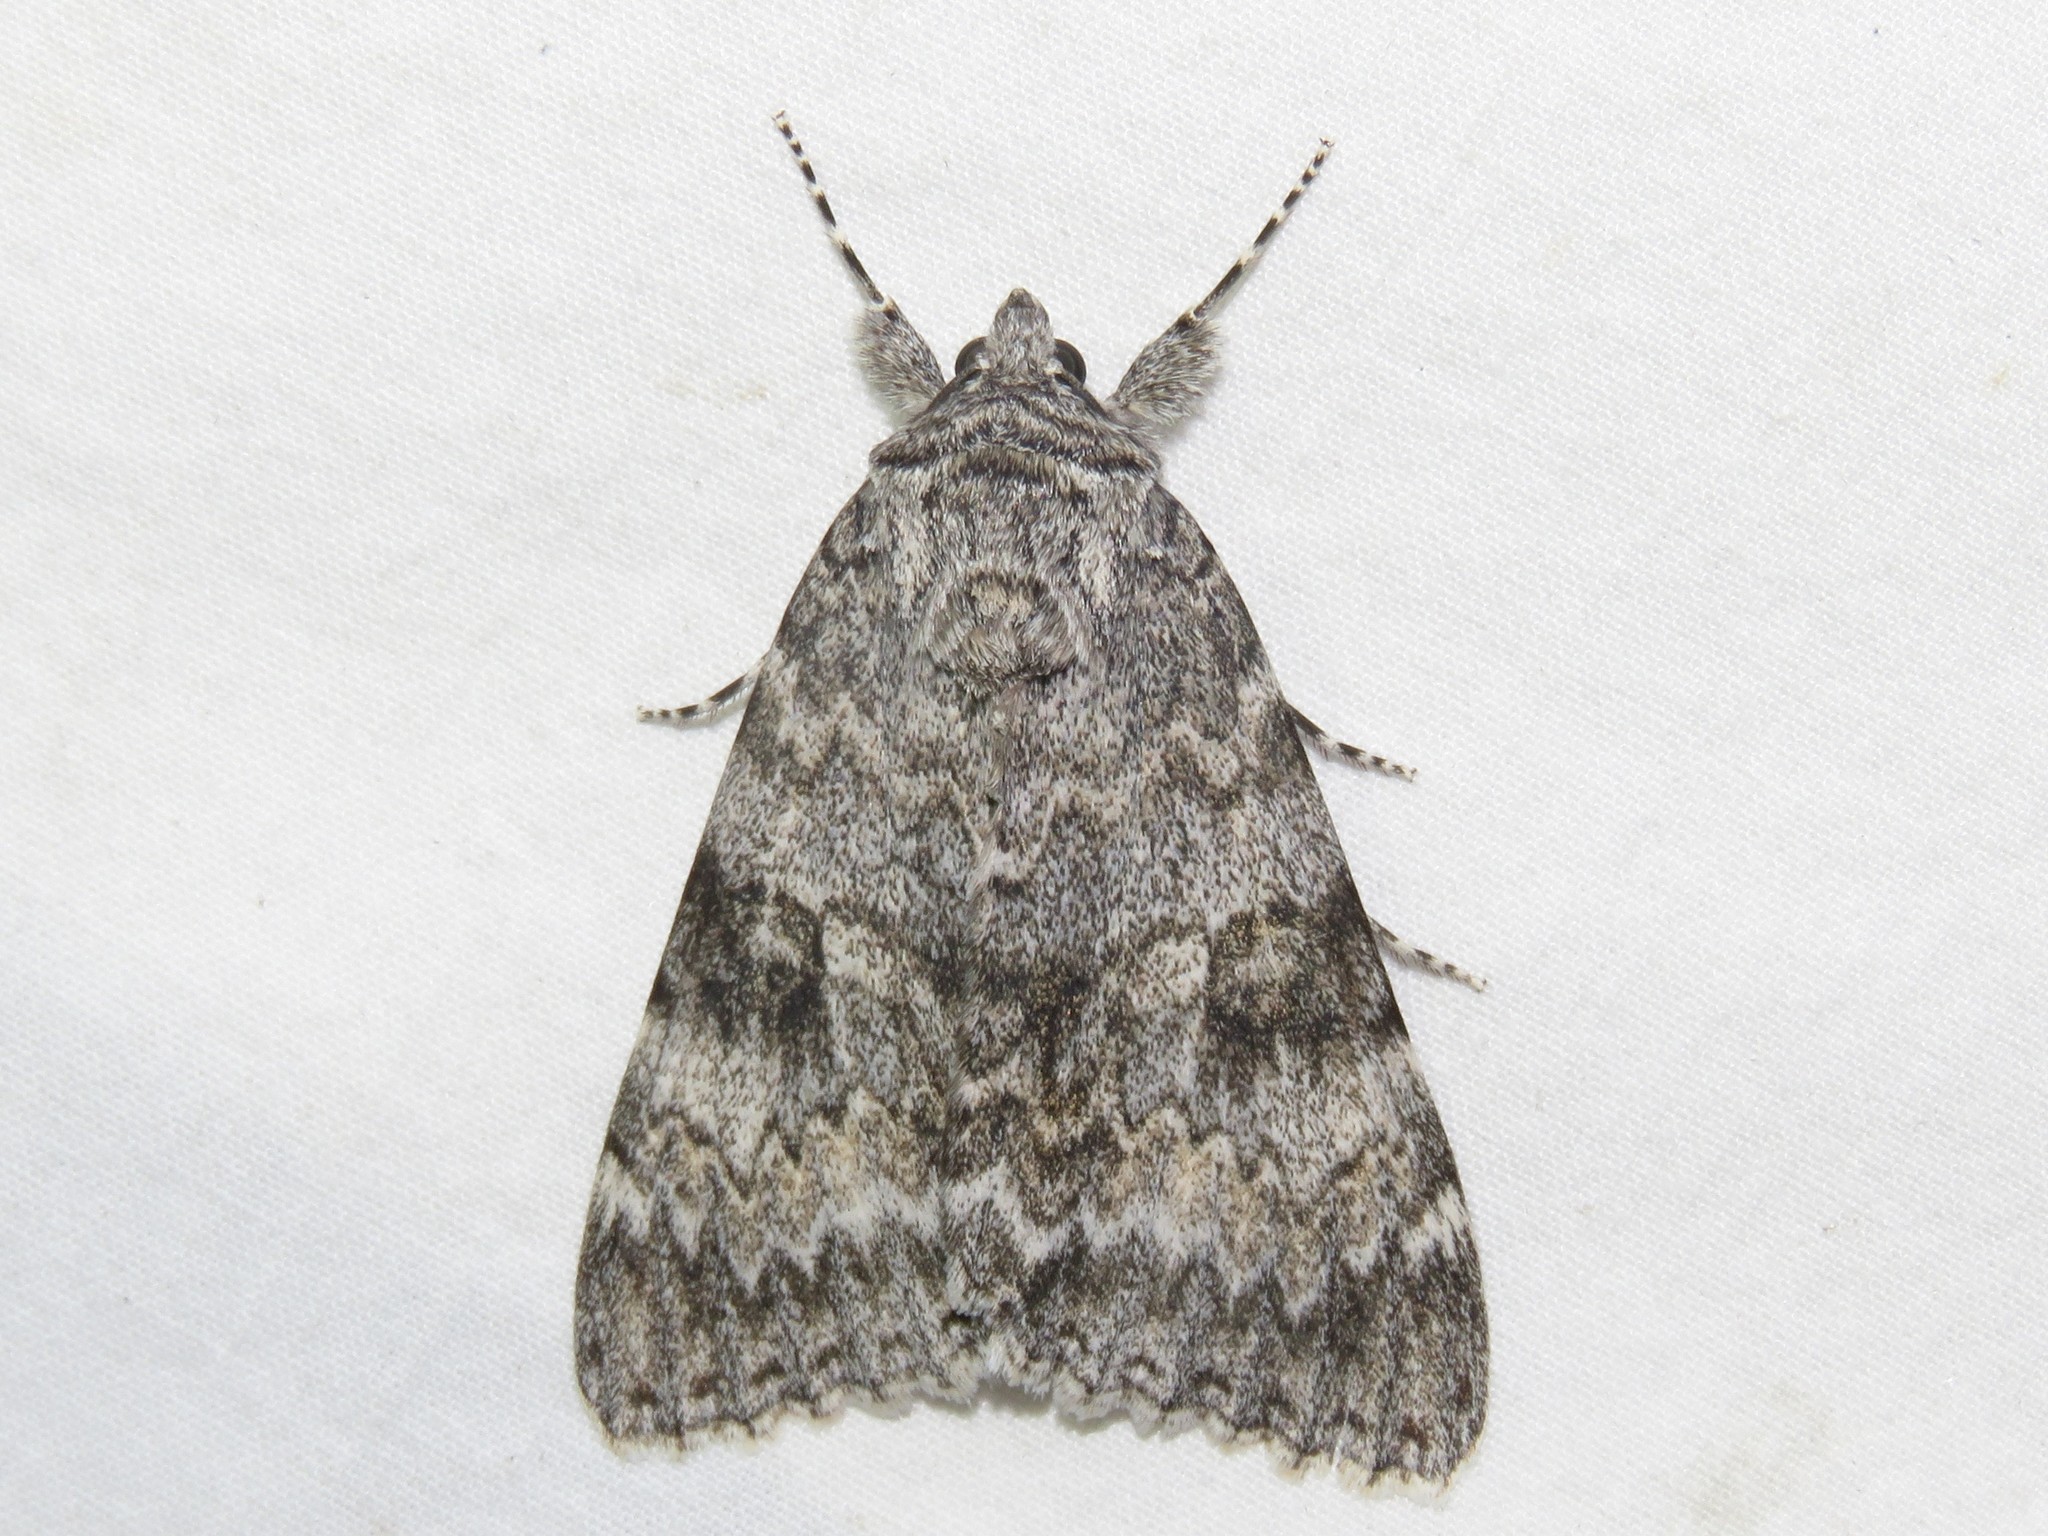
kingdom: Animalia
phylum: Arthropoda
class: Insecta
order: Lepidoptera
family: Erebidae
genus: Catocala
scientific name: Catocala semirelicta
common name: Semirelict underwing moth
